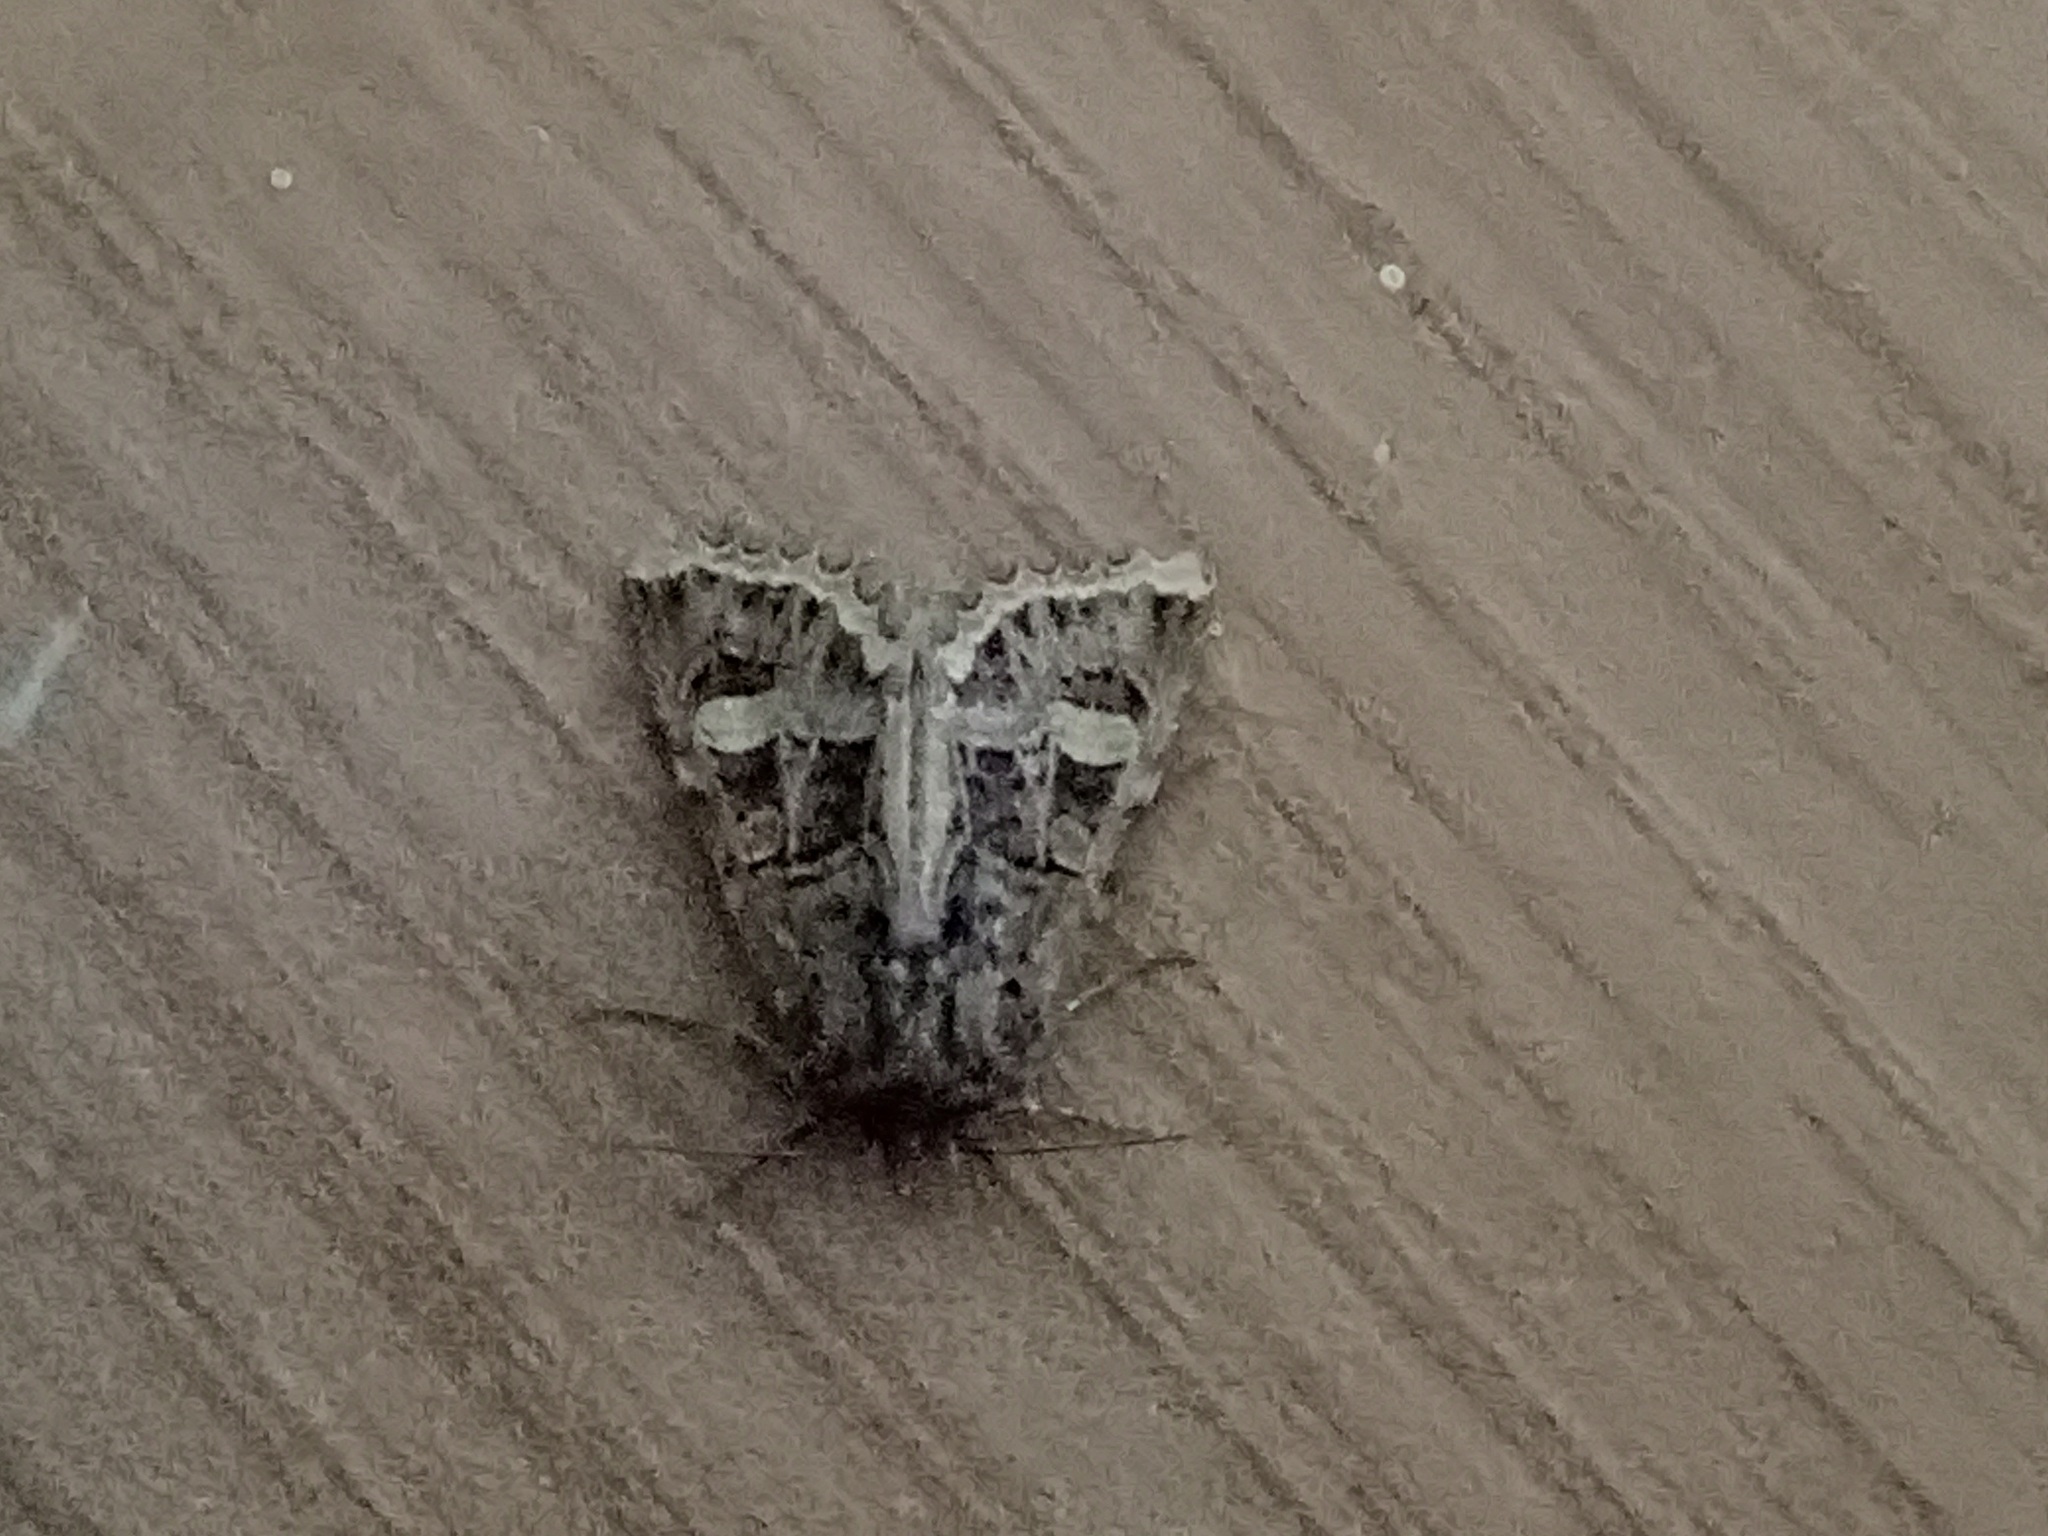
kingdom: Animalia
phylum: Arthropoda
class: Insecta
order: Lepidoptera
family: Noctuidae
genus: Leucochlaena
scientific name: Leucochlaena oditis
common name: Beautiful gothic
